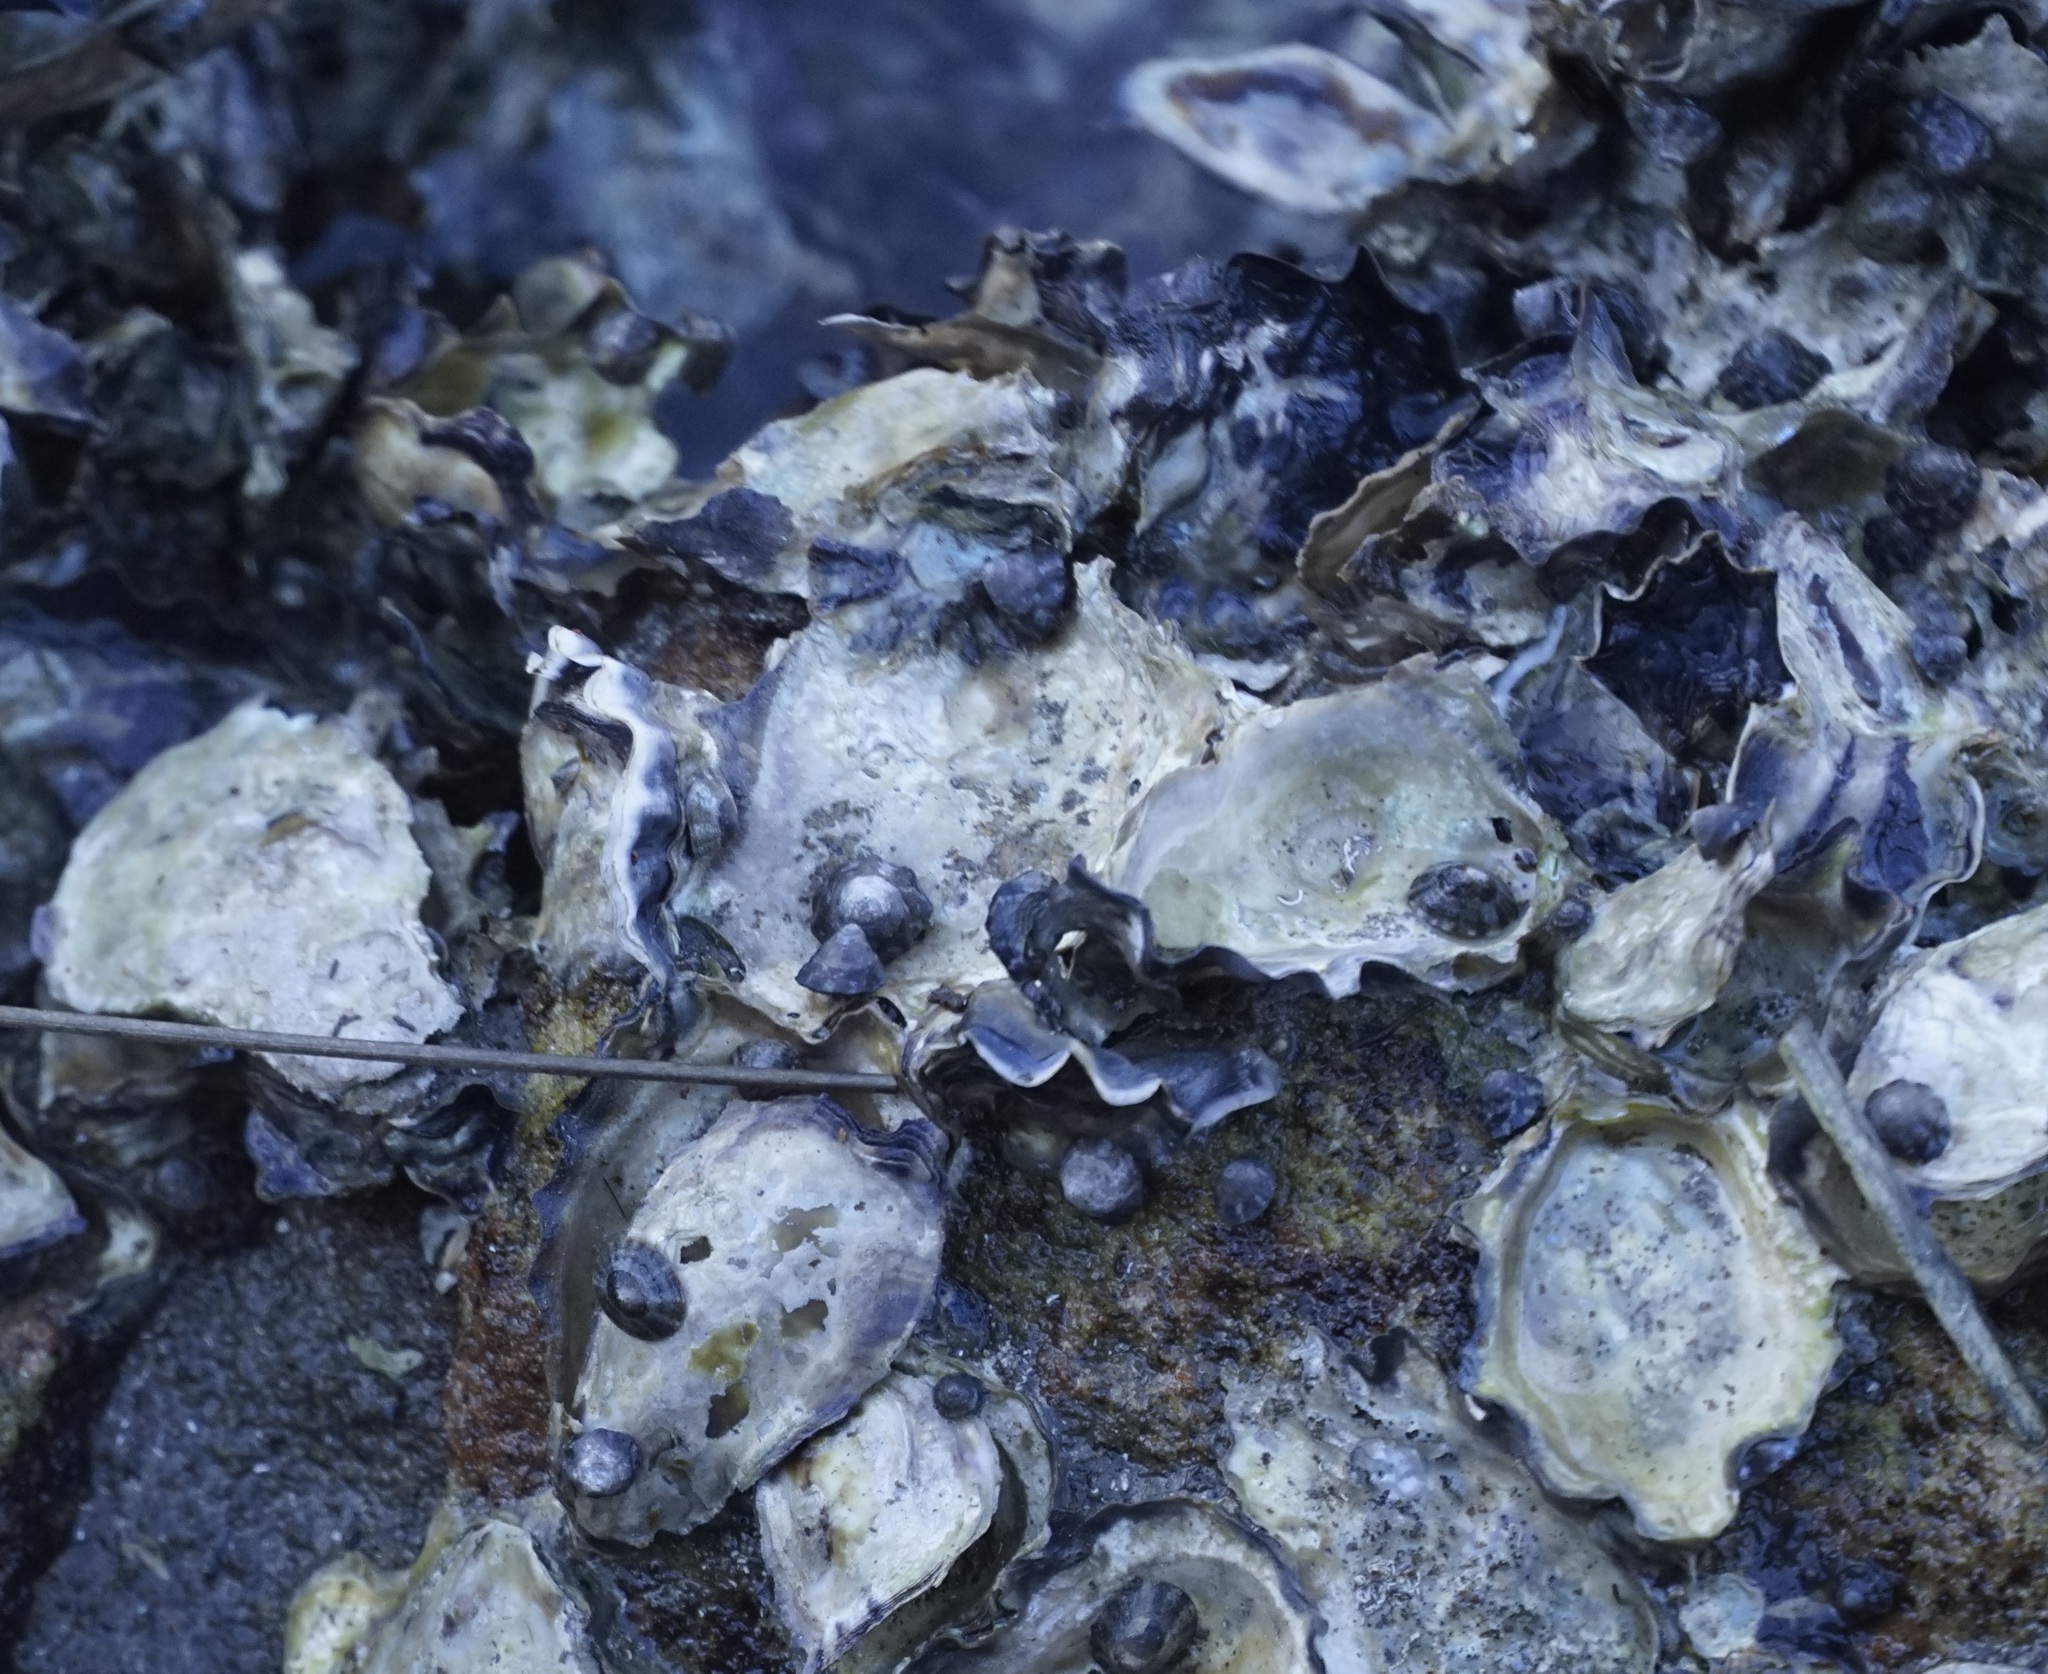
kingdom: Animalia
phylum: Mollusca
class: Bivalvia
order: Ostreida
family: Ostreidae
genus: Saccostrea
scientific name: Saccostrea glomerata
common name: Sydney cupped oyster
